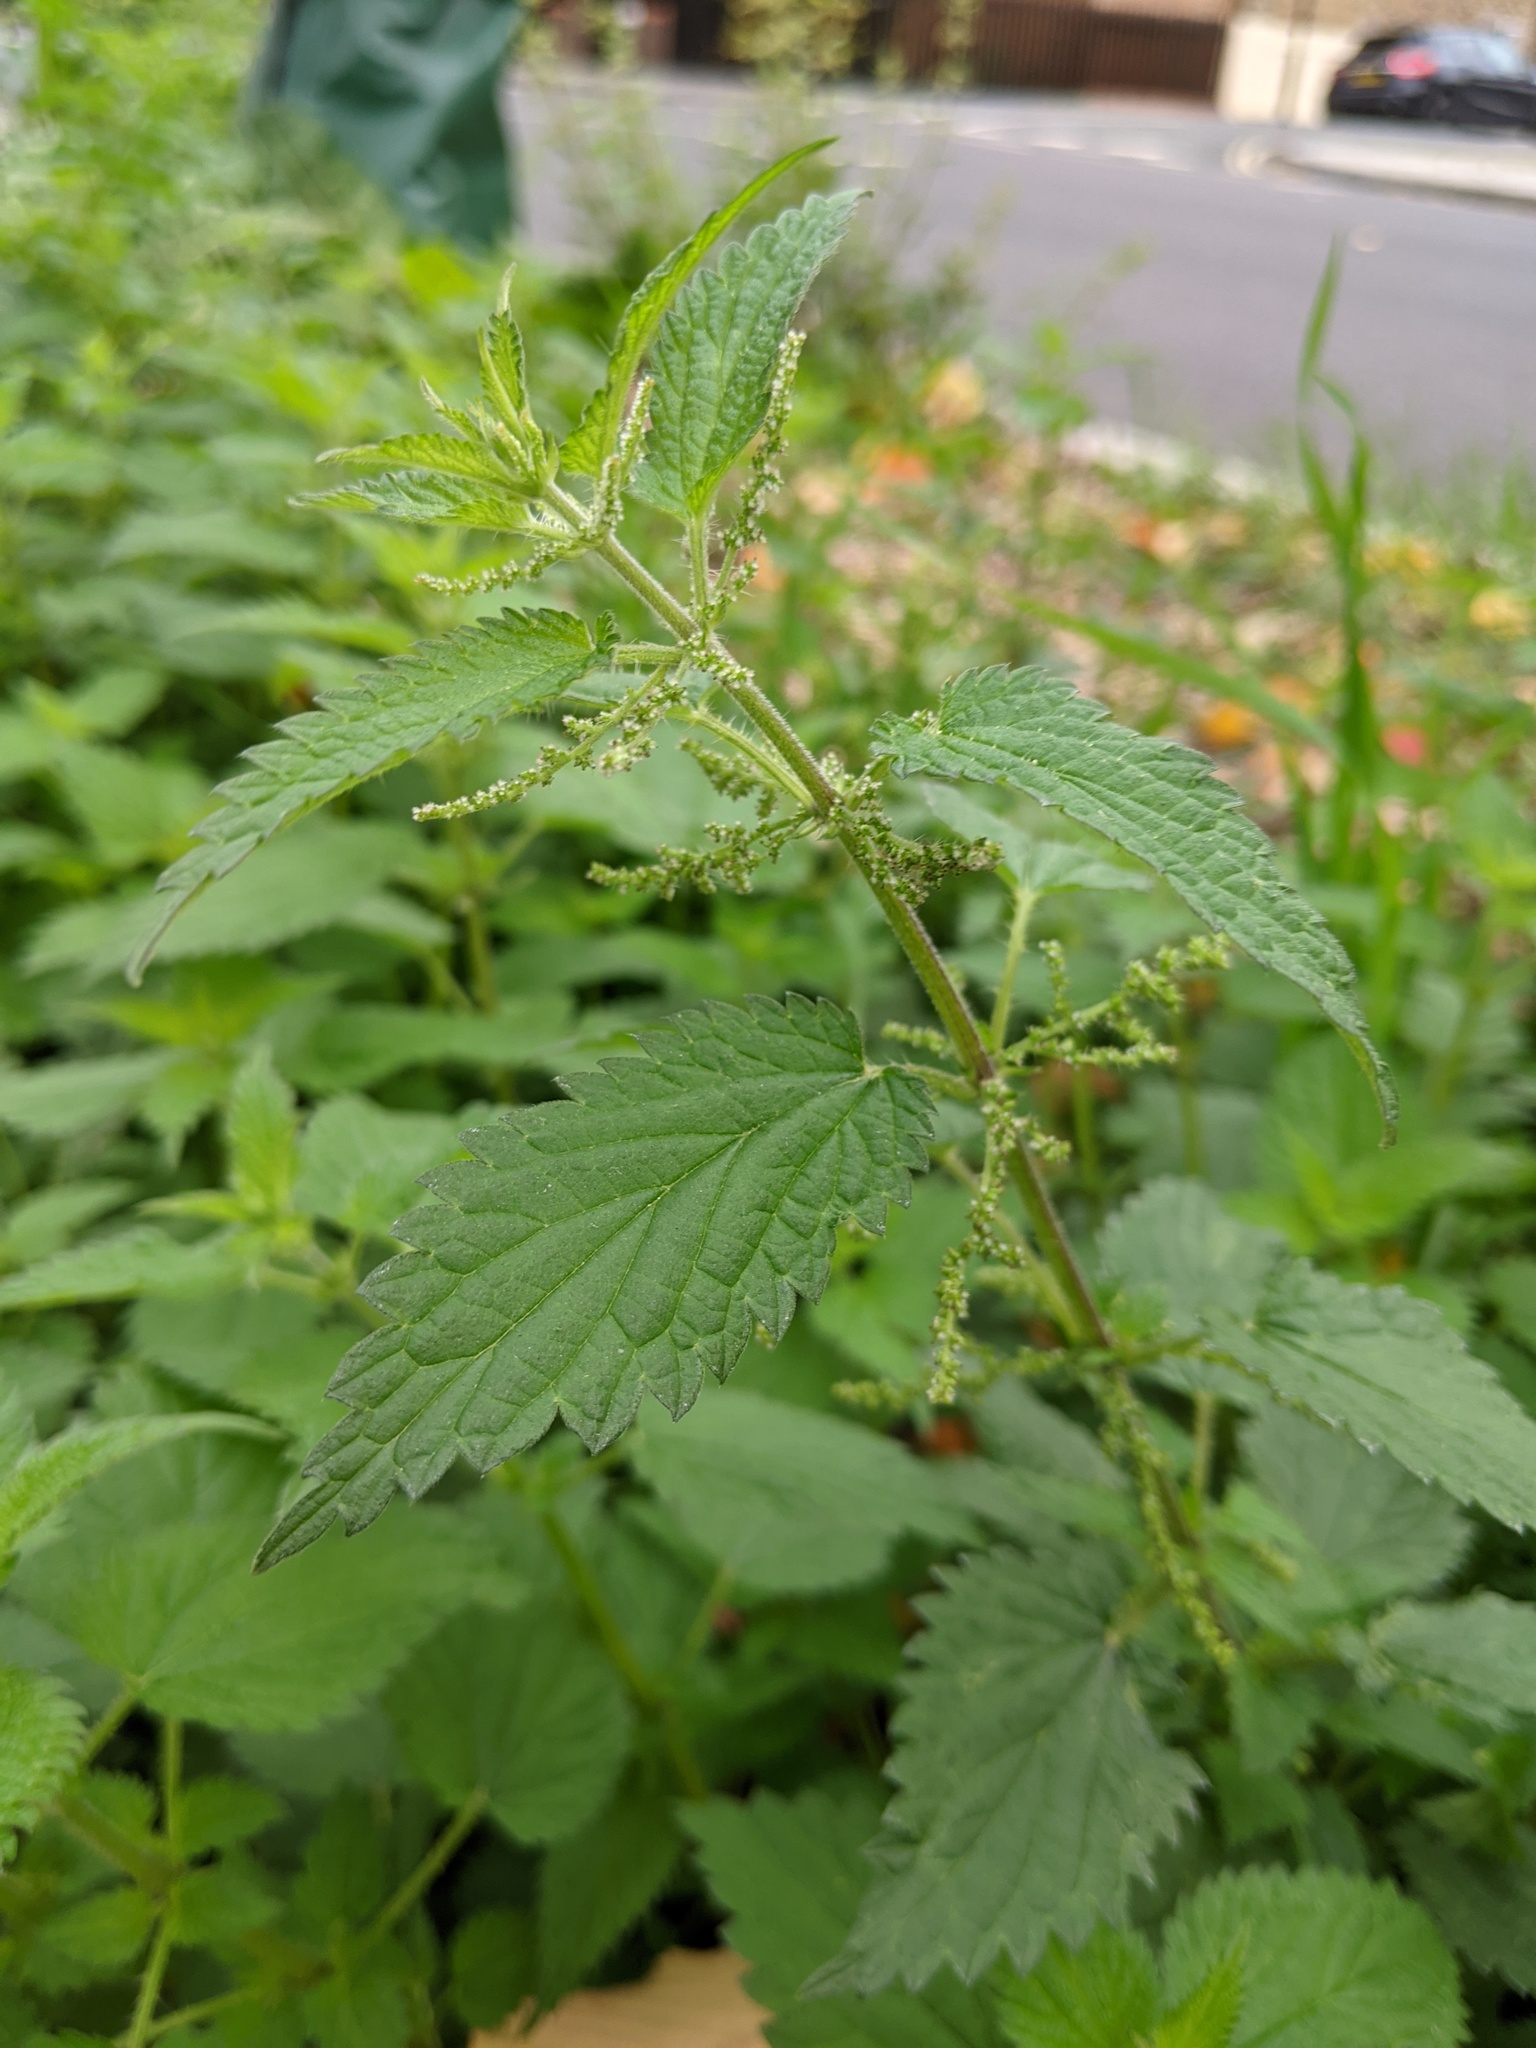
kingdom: Plantae
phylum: Tracheophyta
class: Magnoliopsida
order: Rosales
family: Urticaceae
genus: Urtica
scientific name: Urtica dioica
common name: Common nettle
